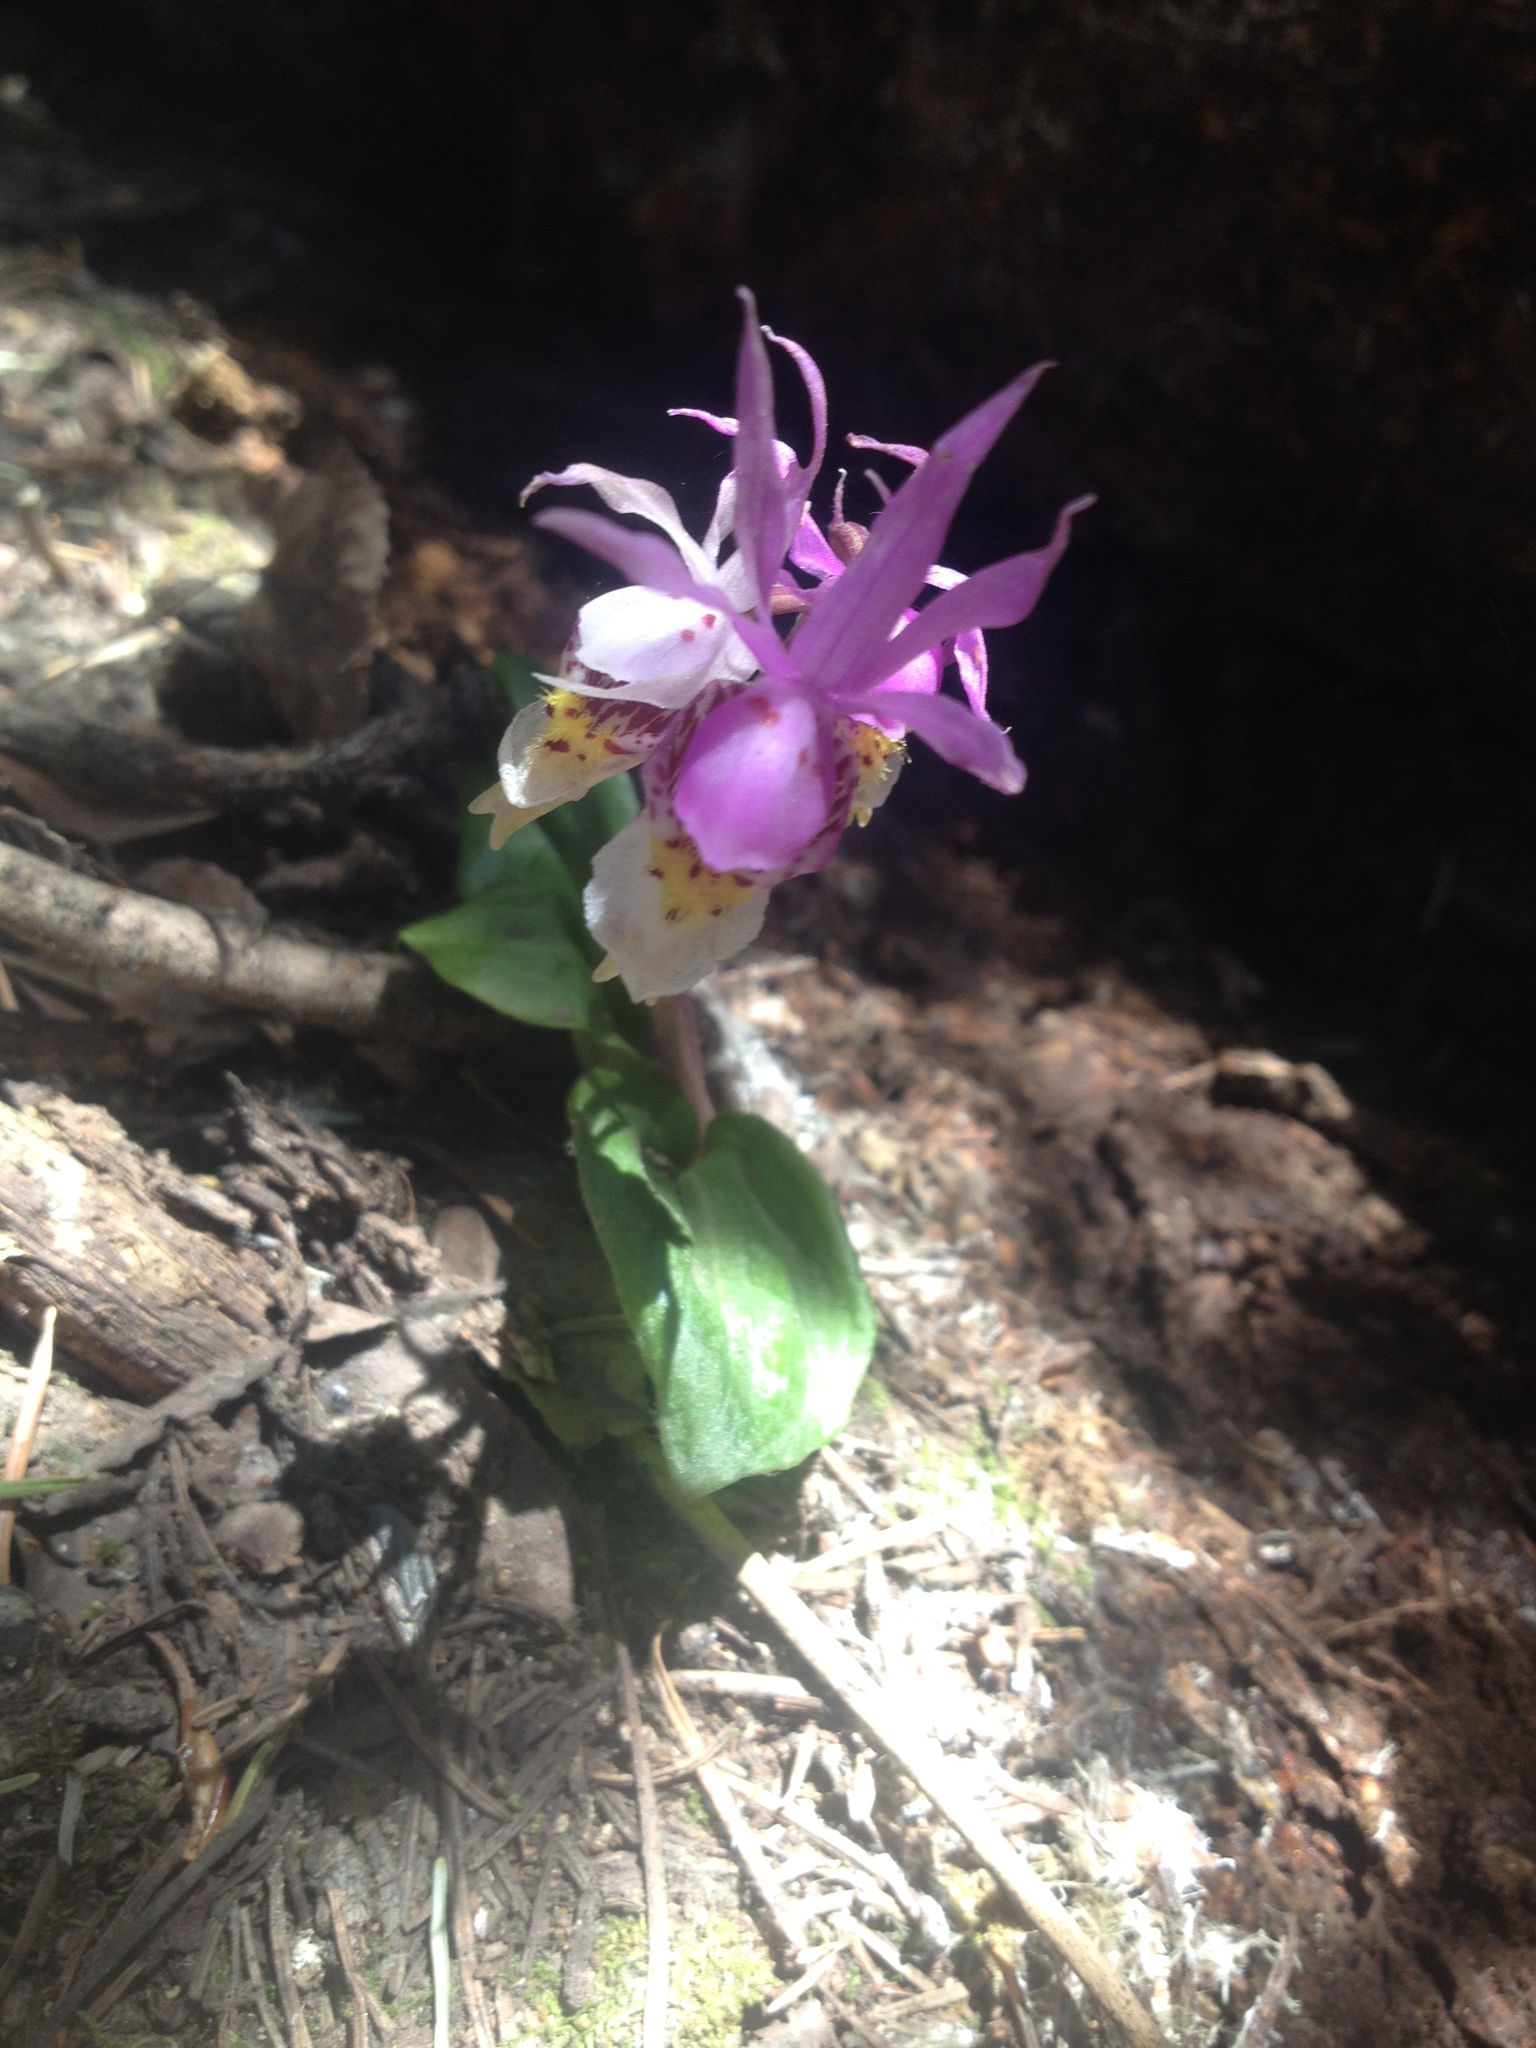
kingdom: Plantae
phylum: Tracheophyta
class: Liliopsida
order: Asparagales
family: Orchidaceae
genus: Calypso
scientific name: Calypso bulbosa
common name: Calypso
